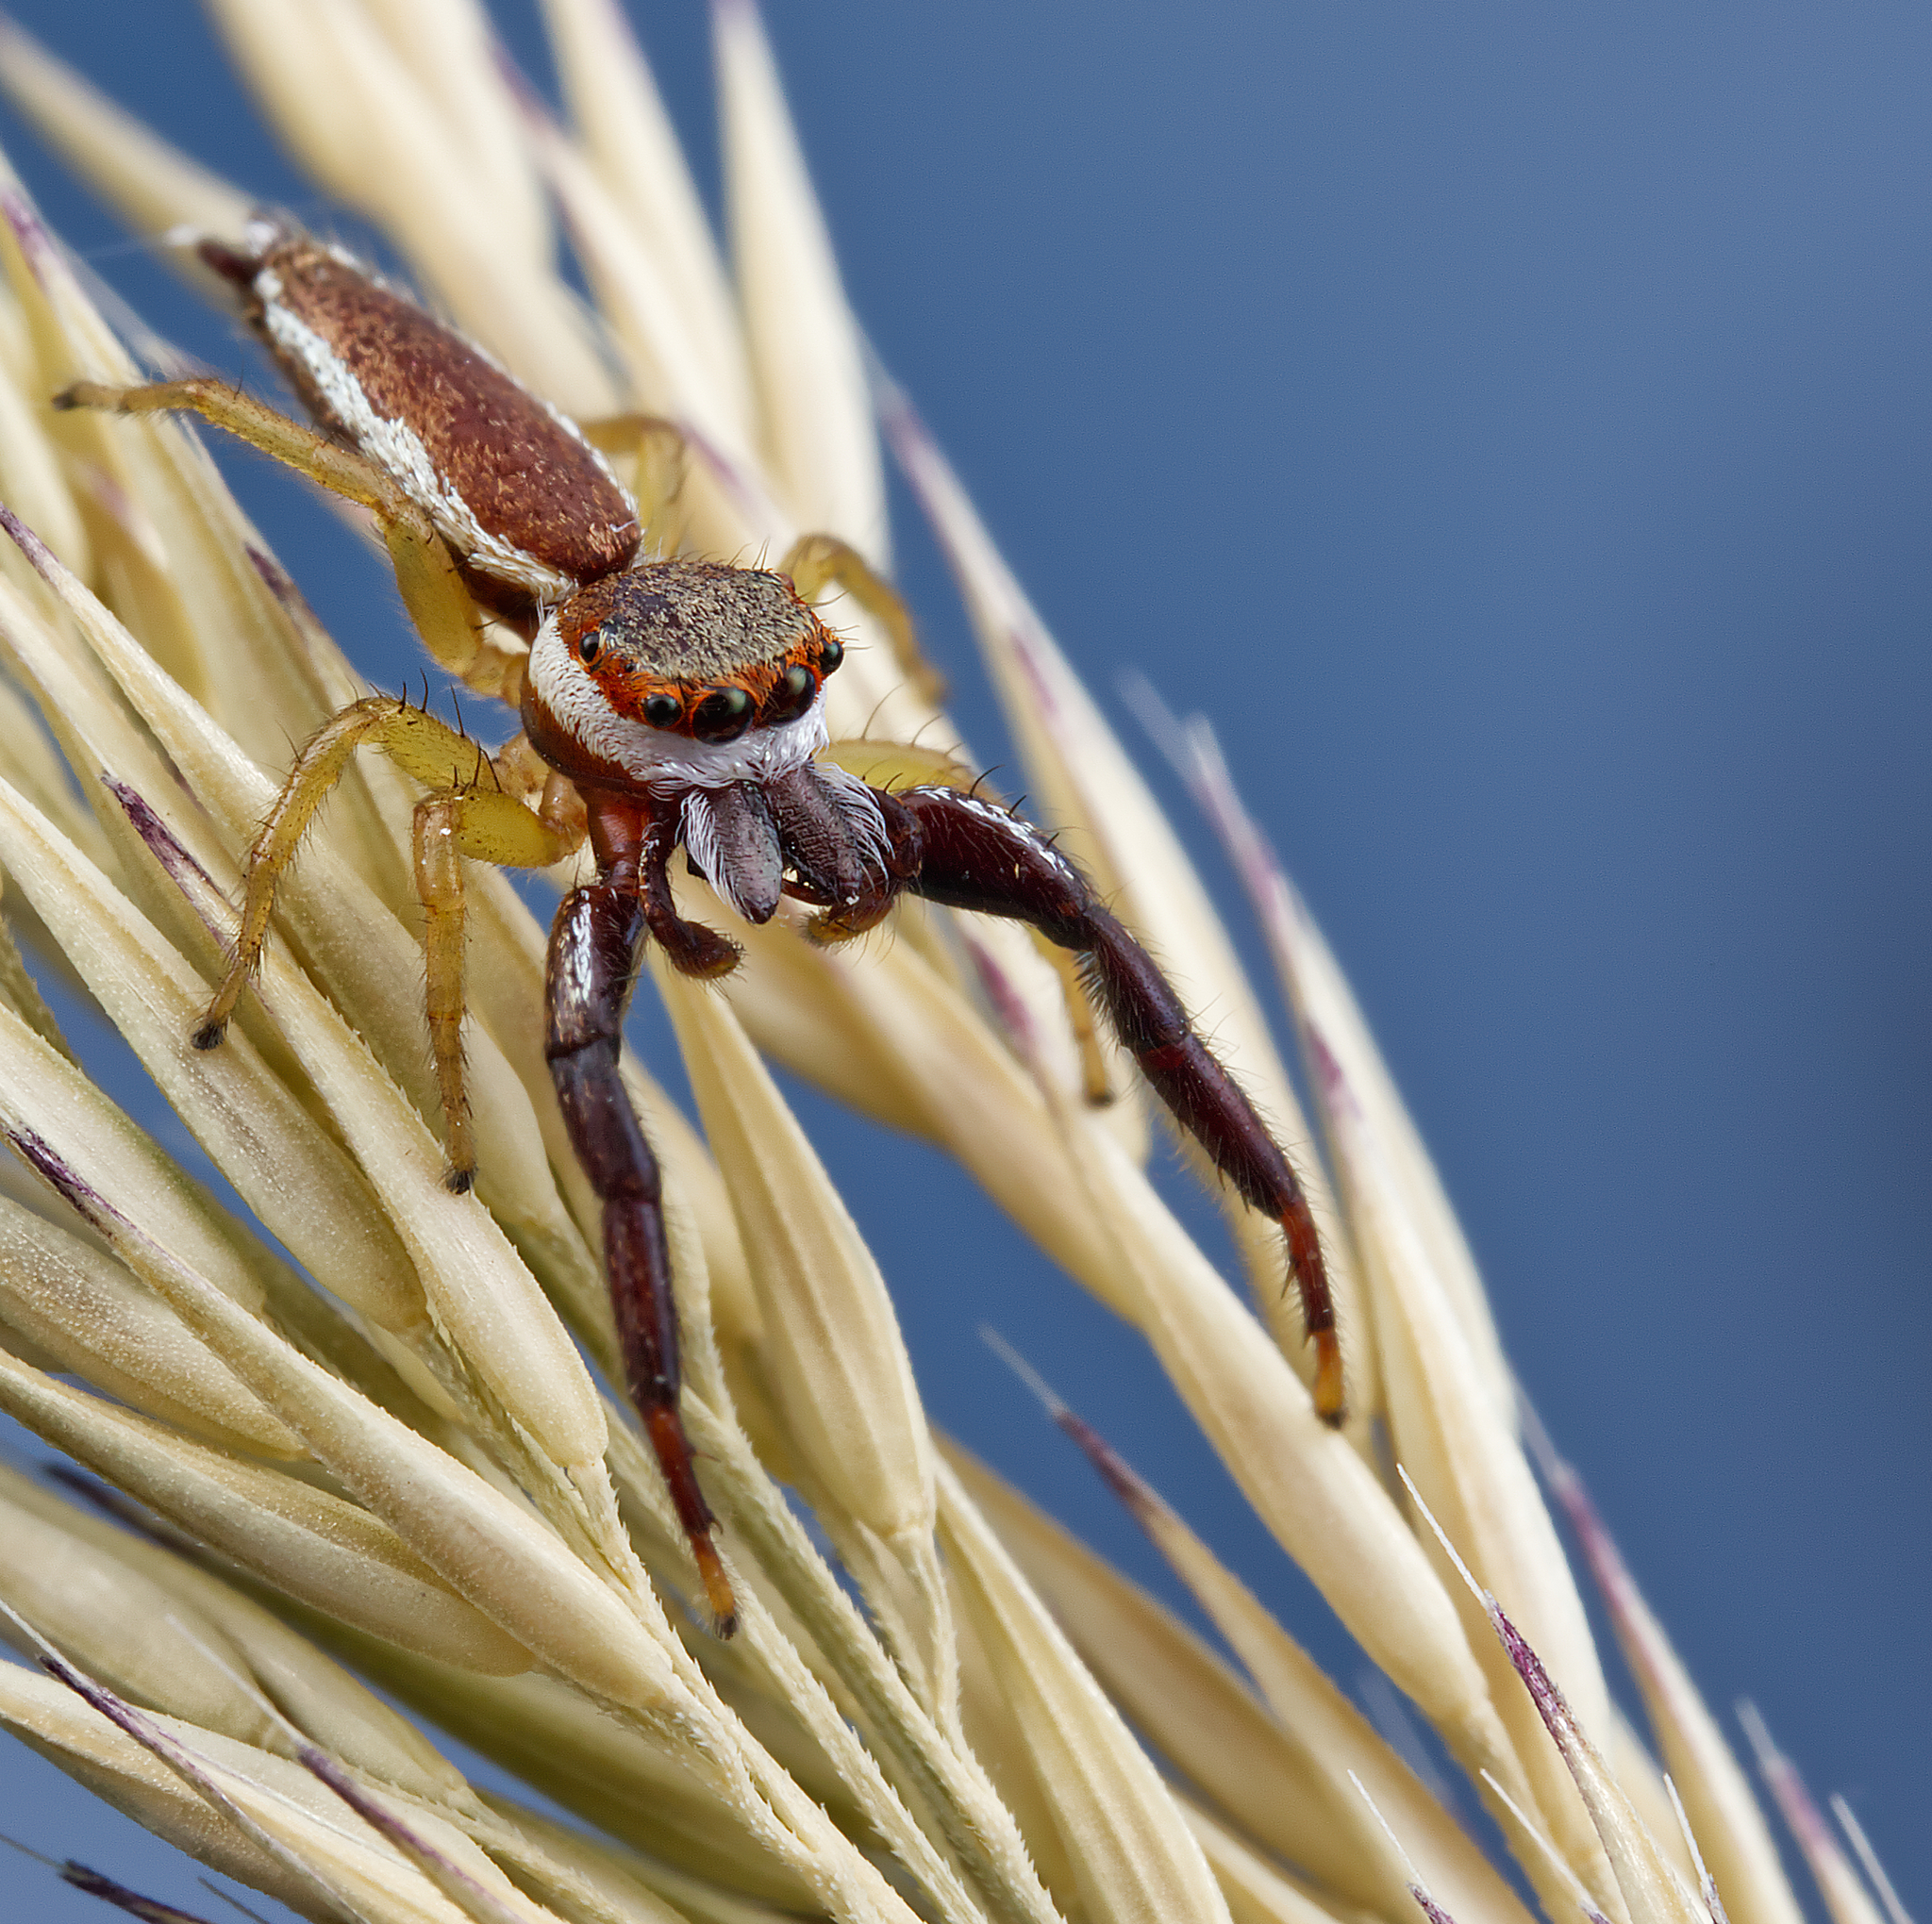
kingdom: Animalia
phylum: Arthropoda
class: Arachnida
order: Araneae
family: Salticidae
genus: Hentzia
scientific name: Hentzia palmarum
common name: Common hentz jumping spider
